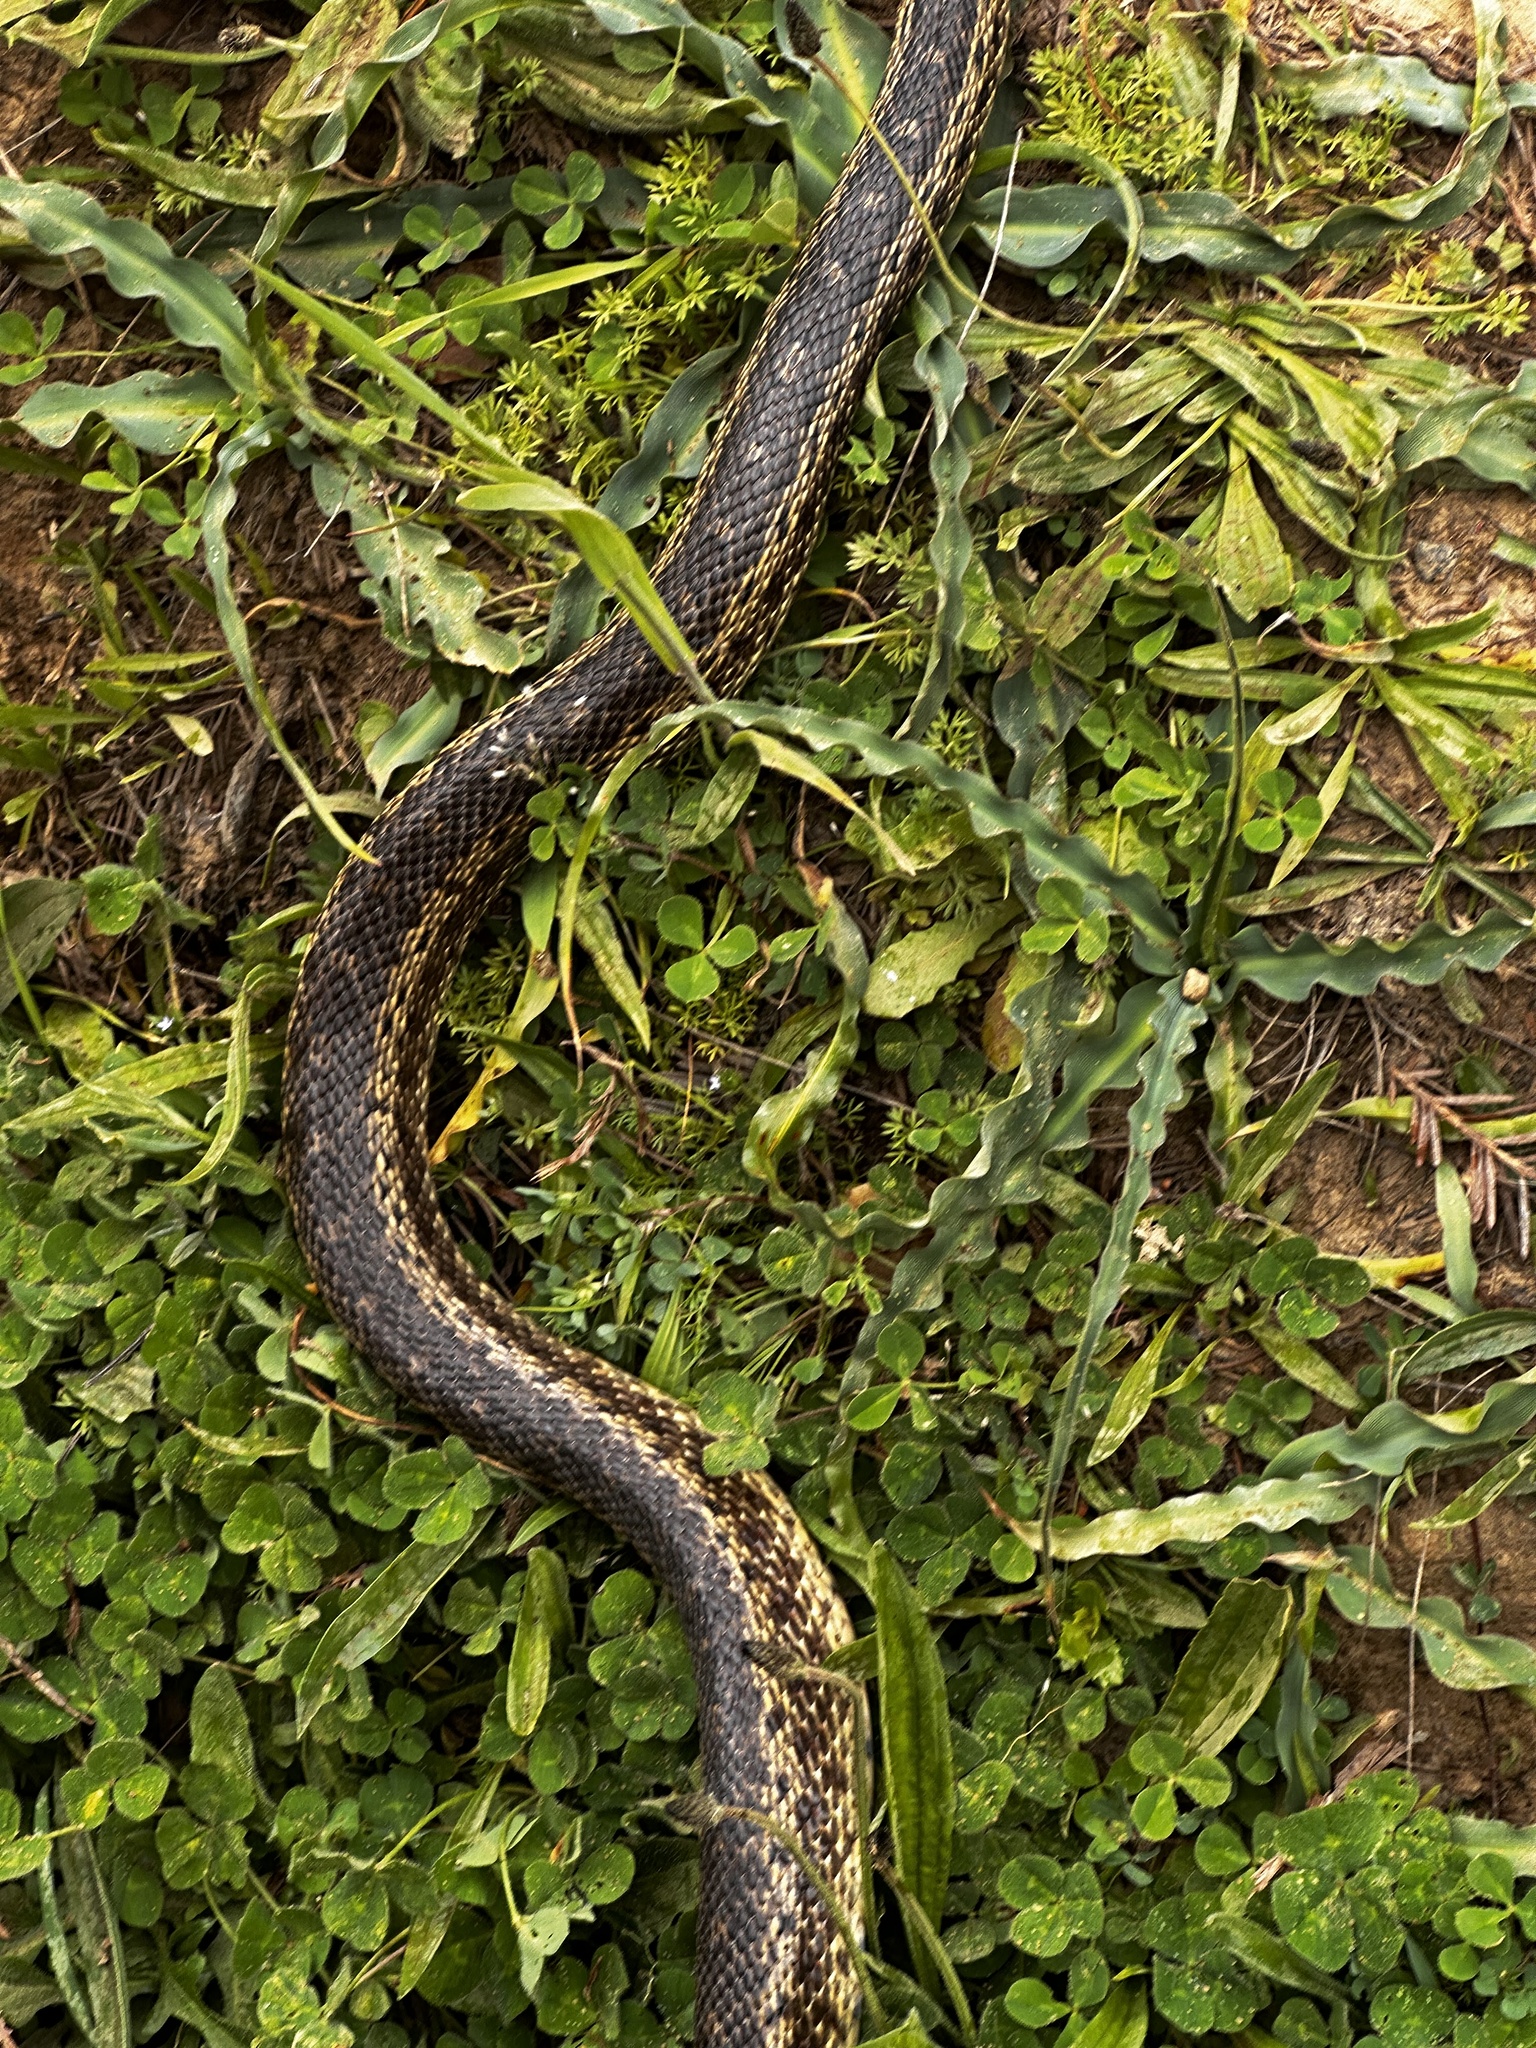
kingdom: Animalia
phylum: Chordata
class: Squamata
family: Colubridae
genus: Pituophis
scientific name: Pituophis catenifer
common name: Gopher snake
